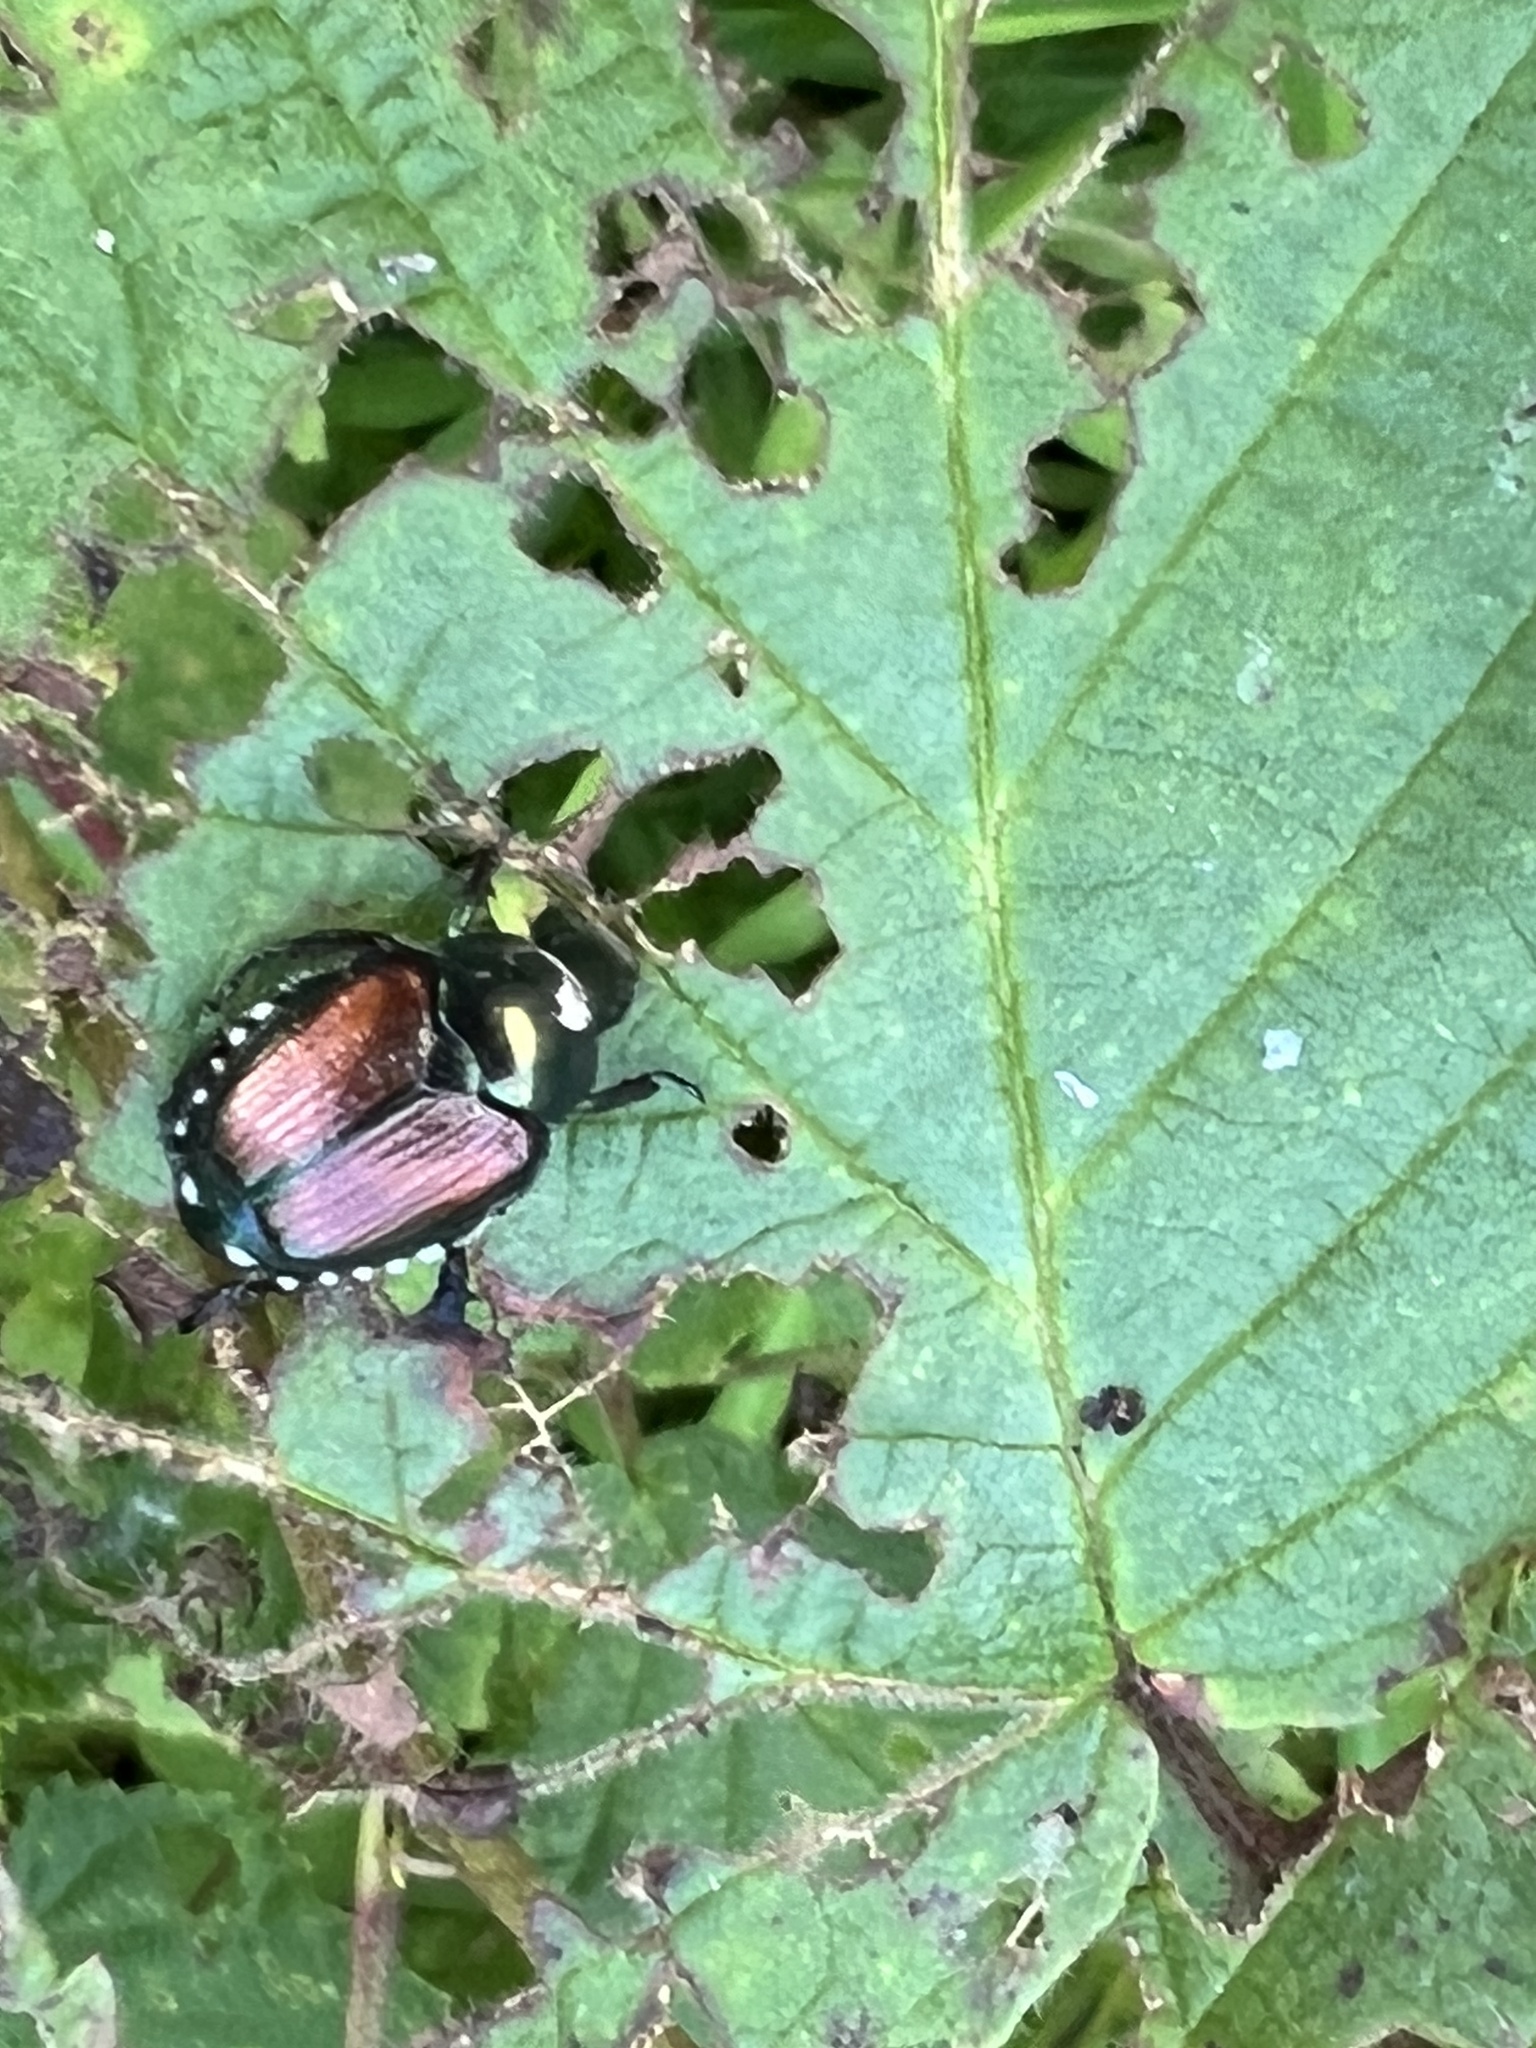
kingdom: Animalia
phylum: Arthropoda
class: Insecta
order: Coleoptera
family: Scarabaeidae
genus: Popillia
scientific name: Popillia japonica
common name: Japanese beetle
